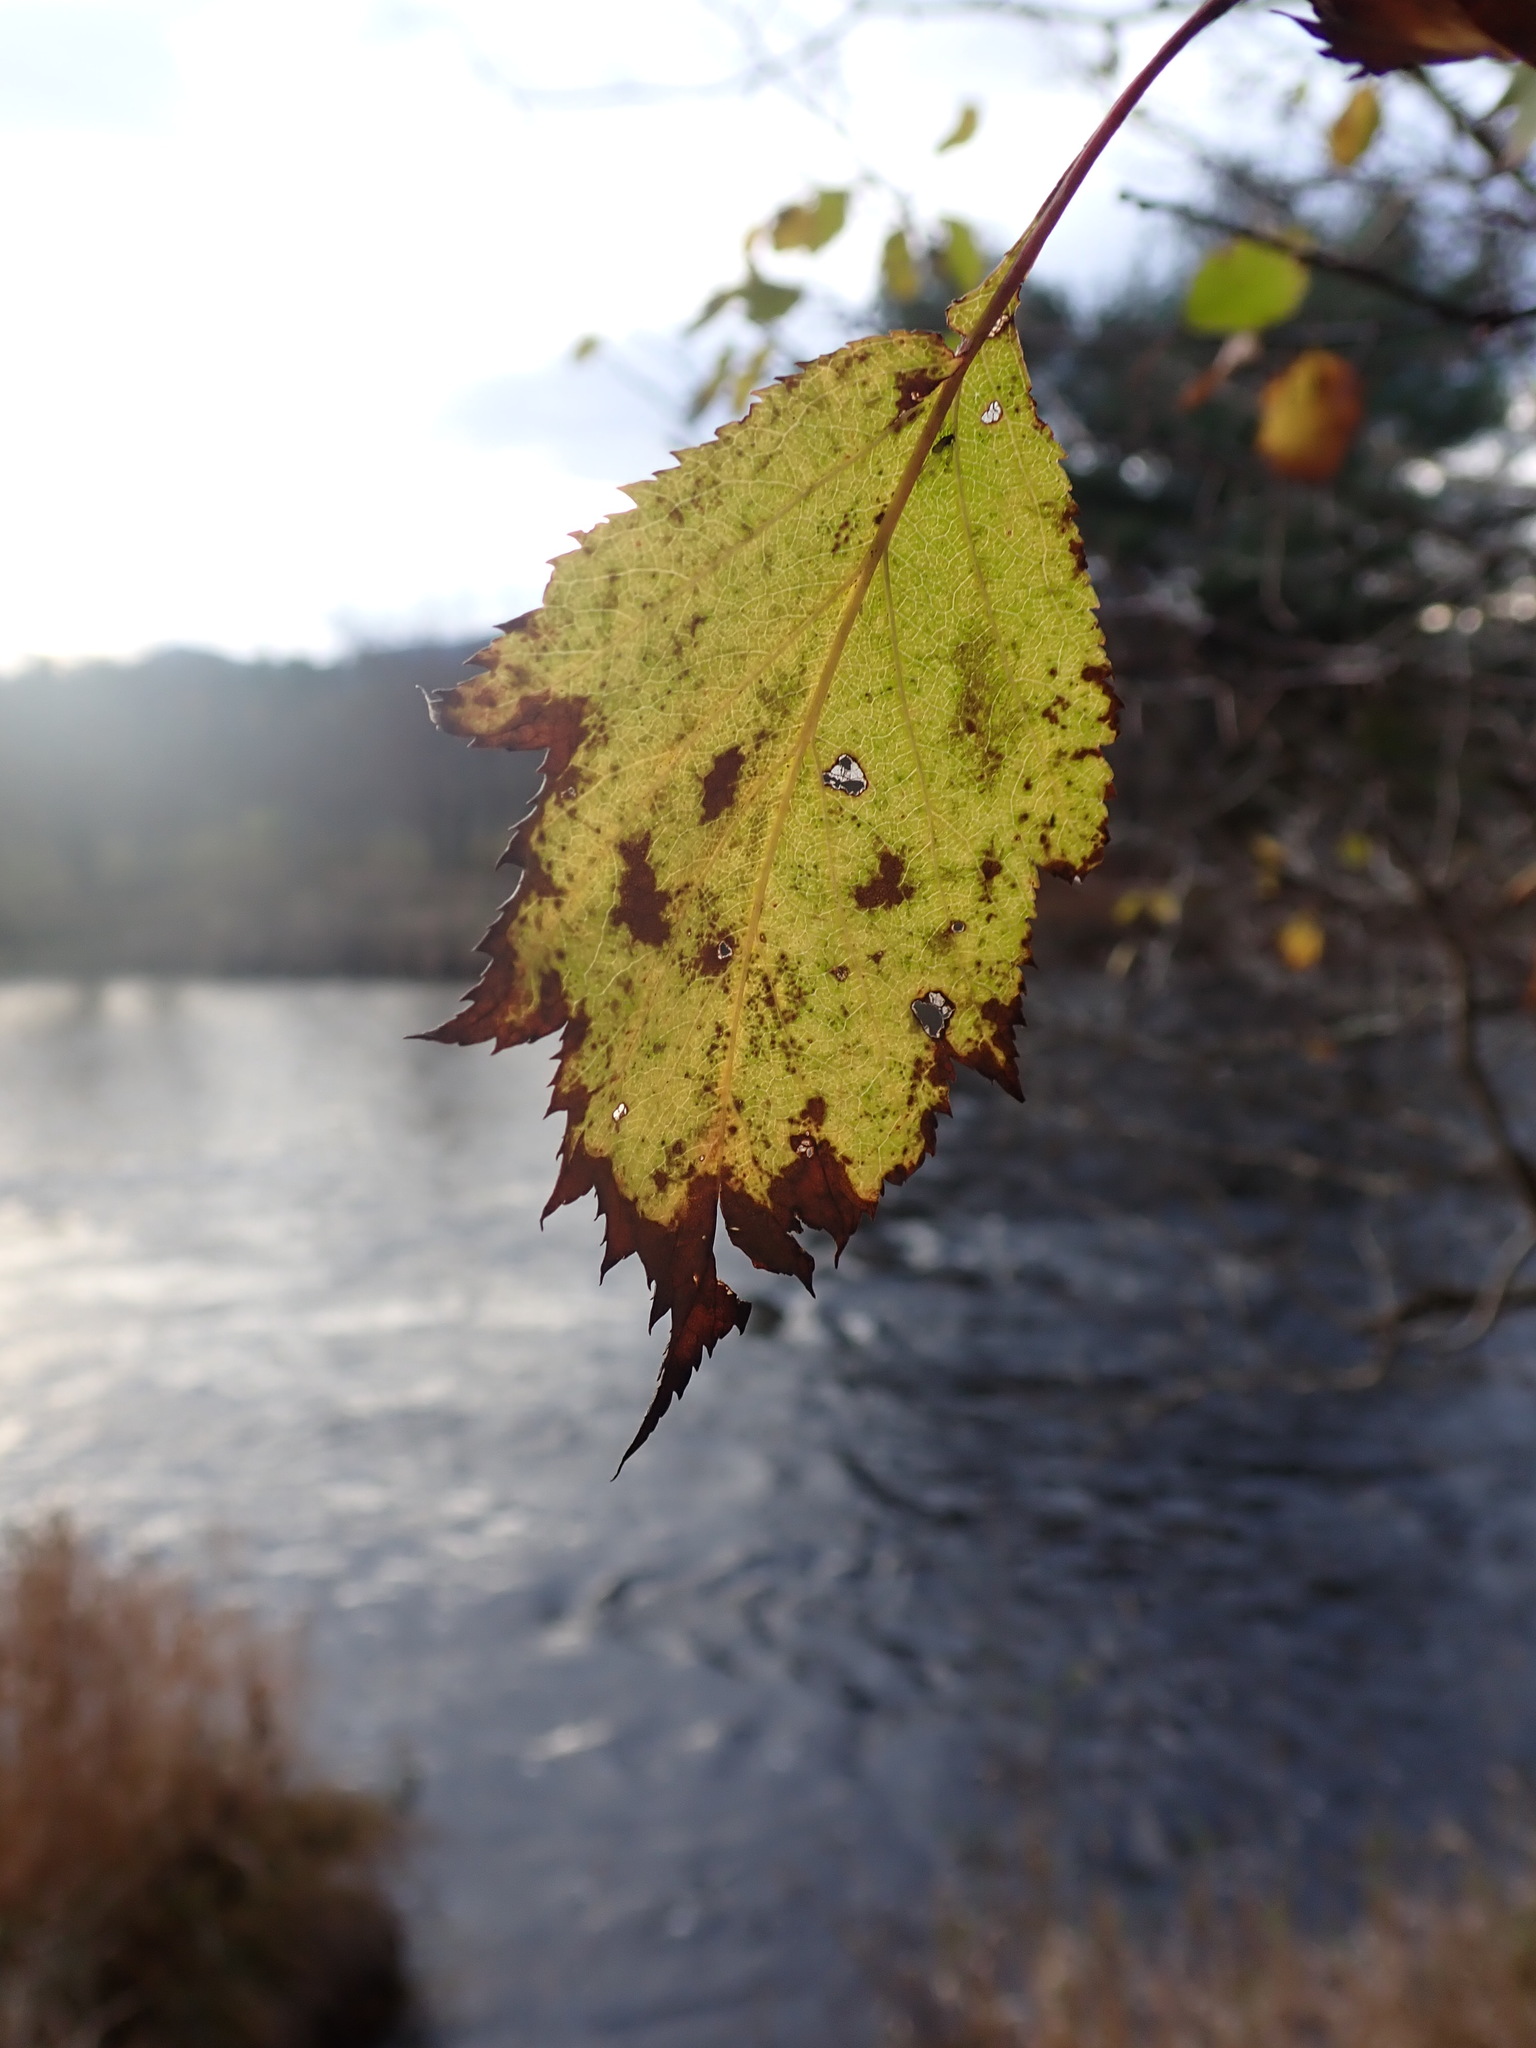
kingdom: Plantae
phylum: Tracheophyta
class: Magnoliopsida
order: Rosales
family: Rosaceae
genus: Crataegus
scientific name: Crataegus
